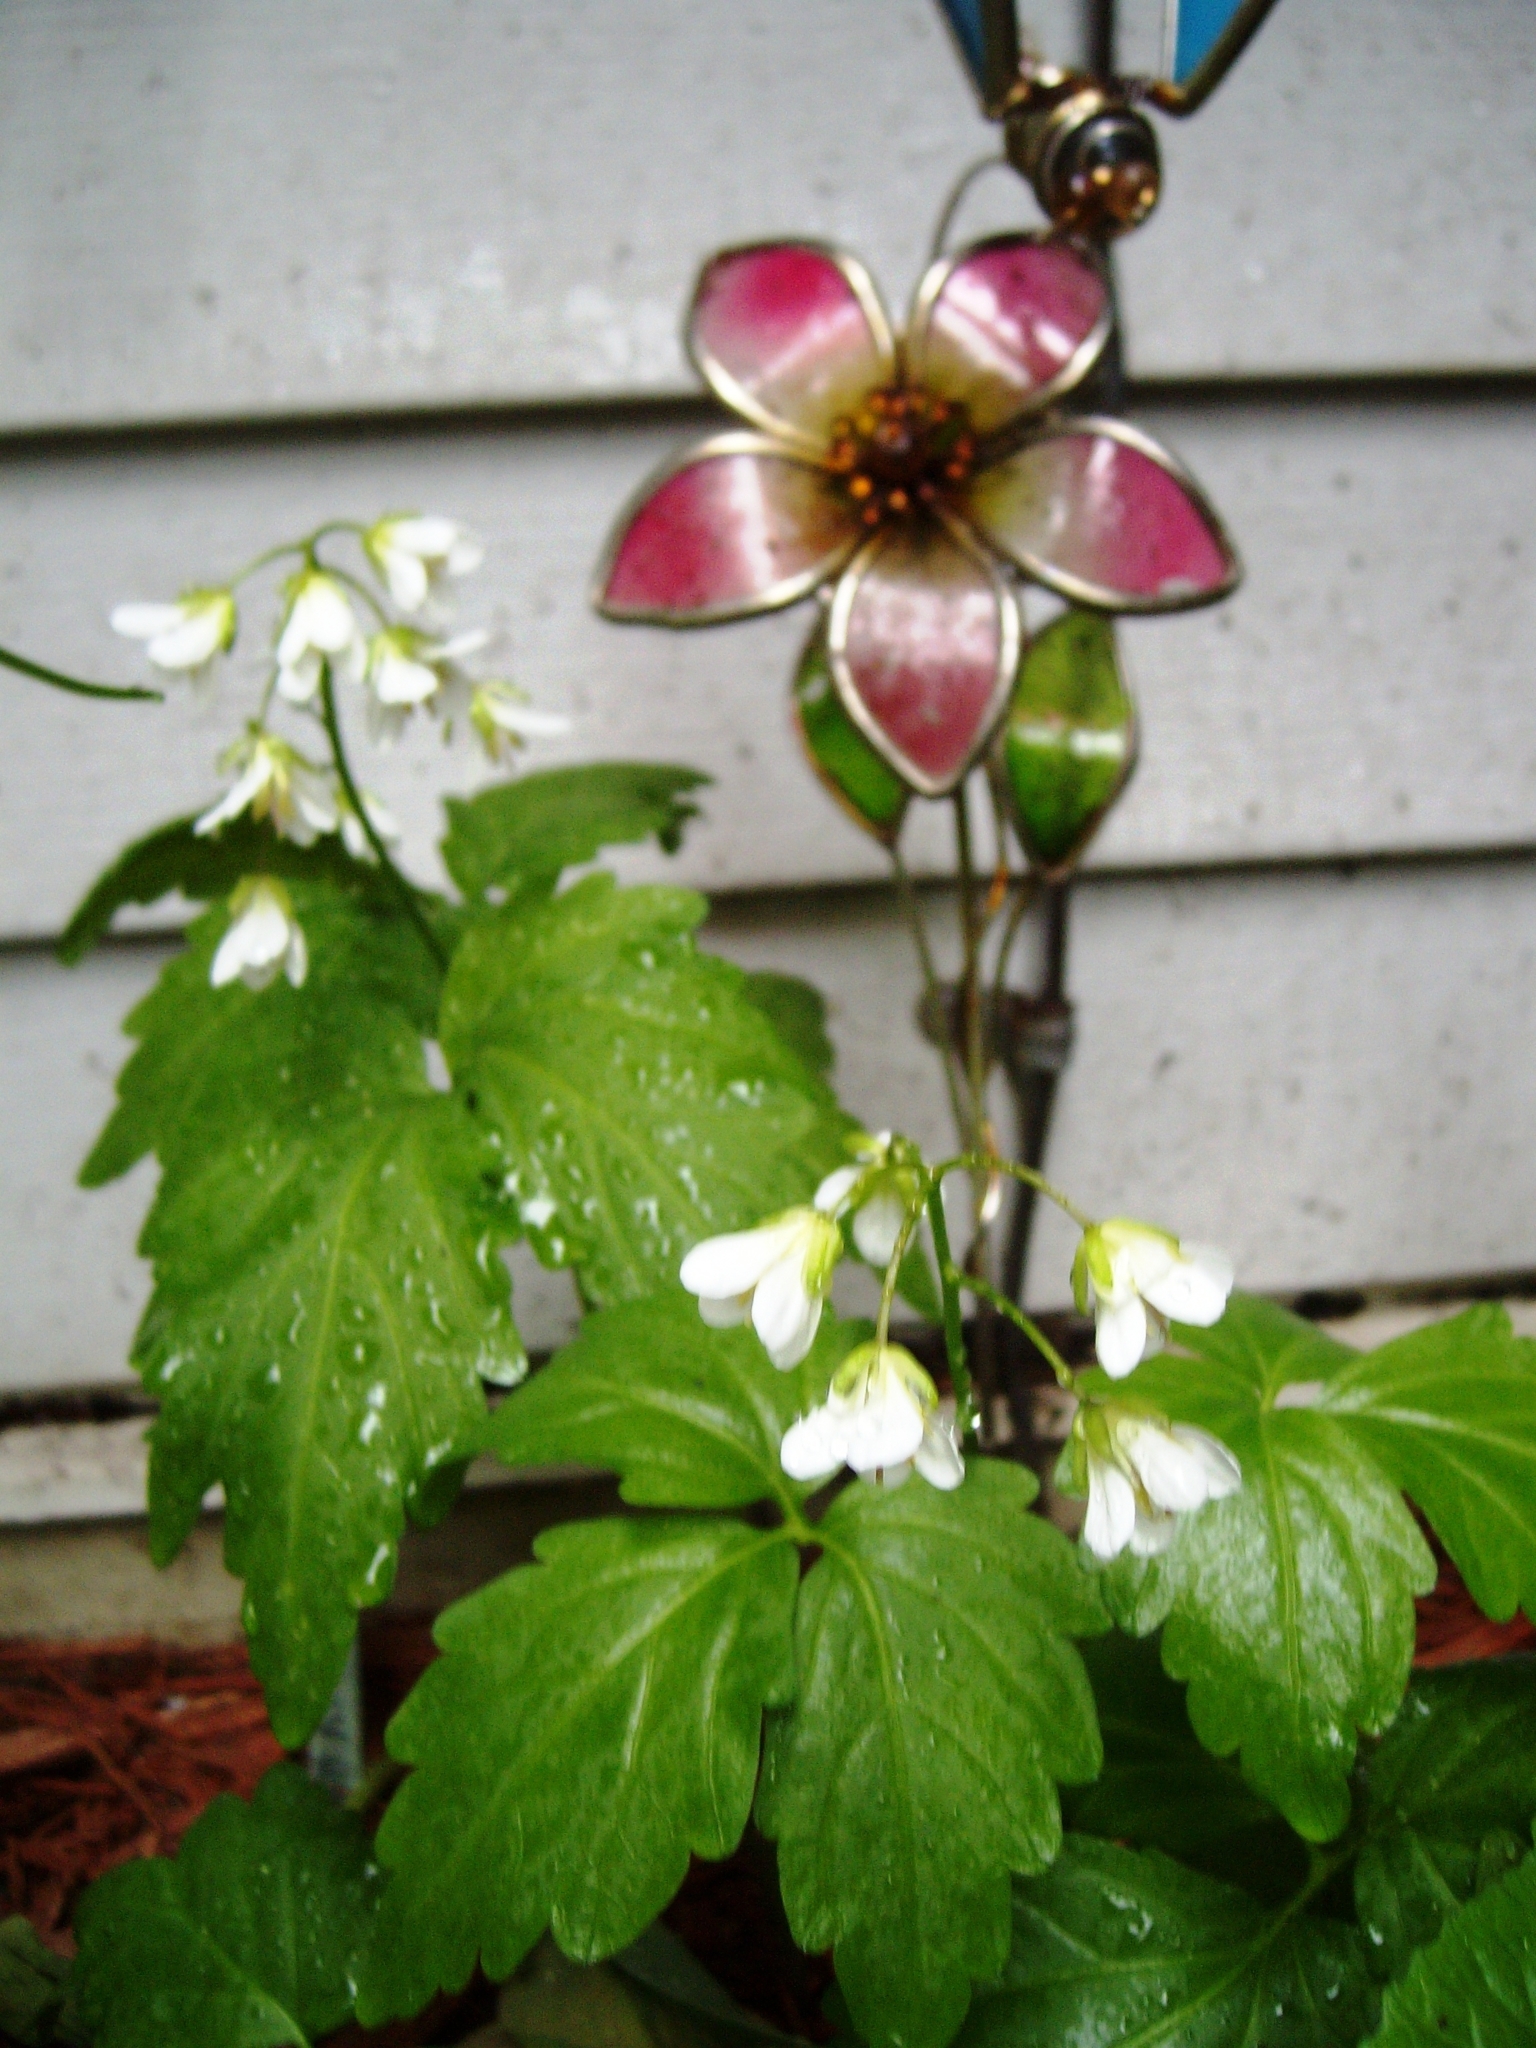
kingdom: Plantae
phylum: Tracheophyta
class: Magnoliopsida
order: Brassicales
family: Brassicaceae
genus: Cardamine
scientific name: Cardamine diphylla
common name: Broad-leaved toothwort
